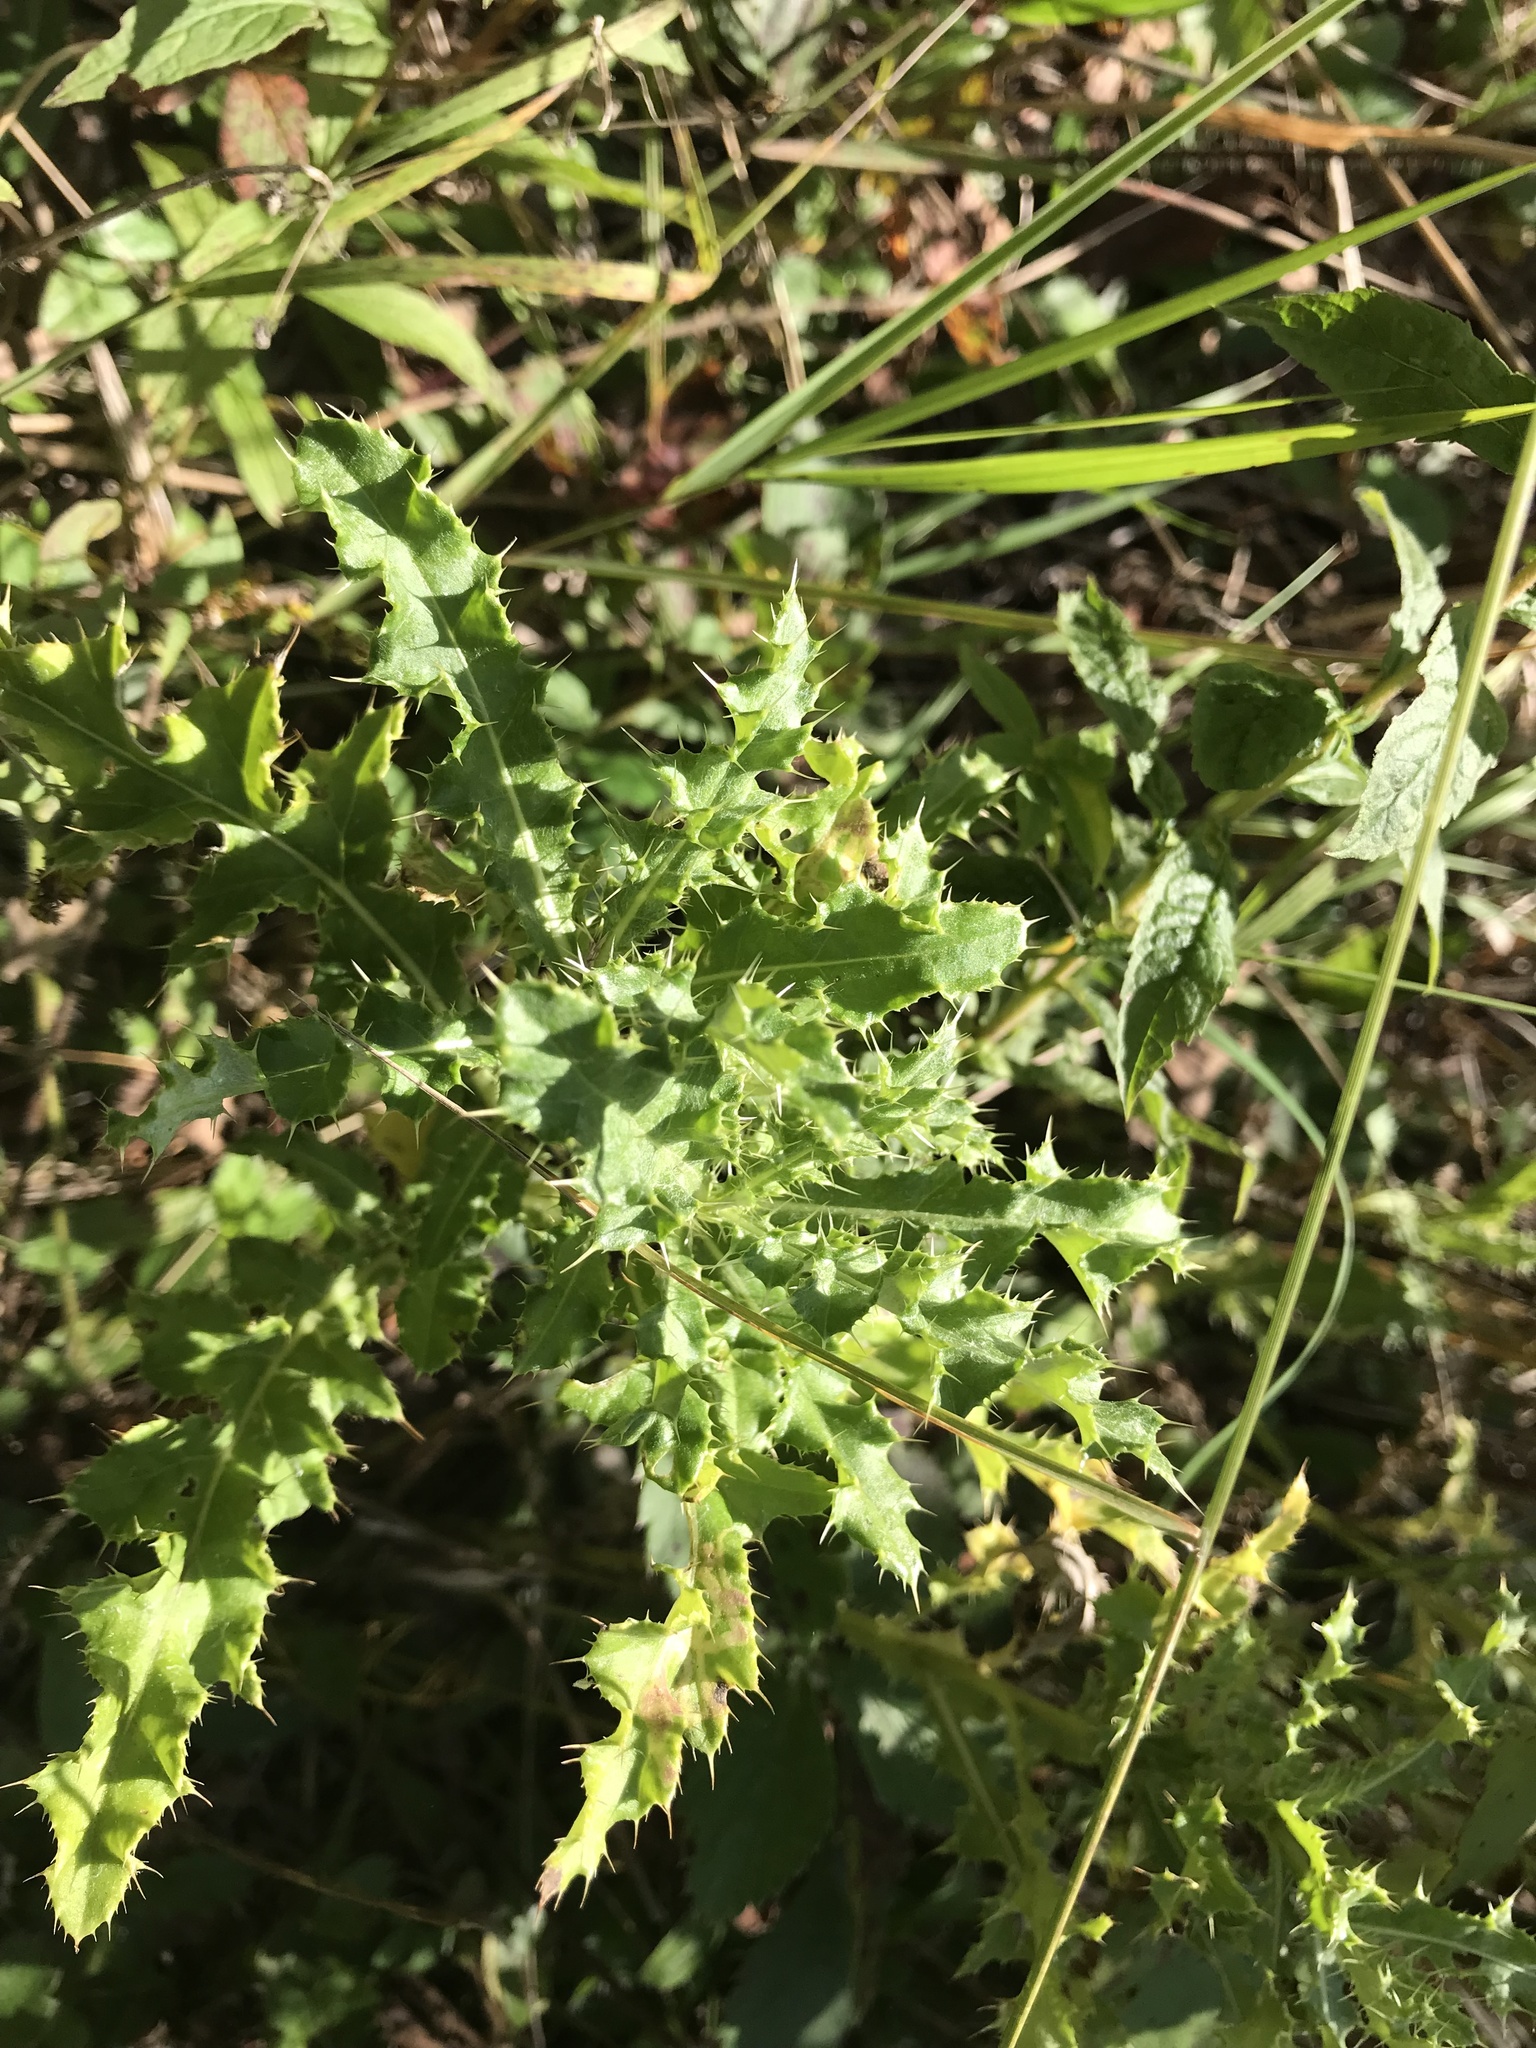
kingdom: Plantae
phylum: Tracheophyta
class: Magnoliopsida
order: Asterales
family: Asteraceae
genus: Cirsium
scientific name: Cirsium arvense
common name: Creeping thistle
